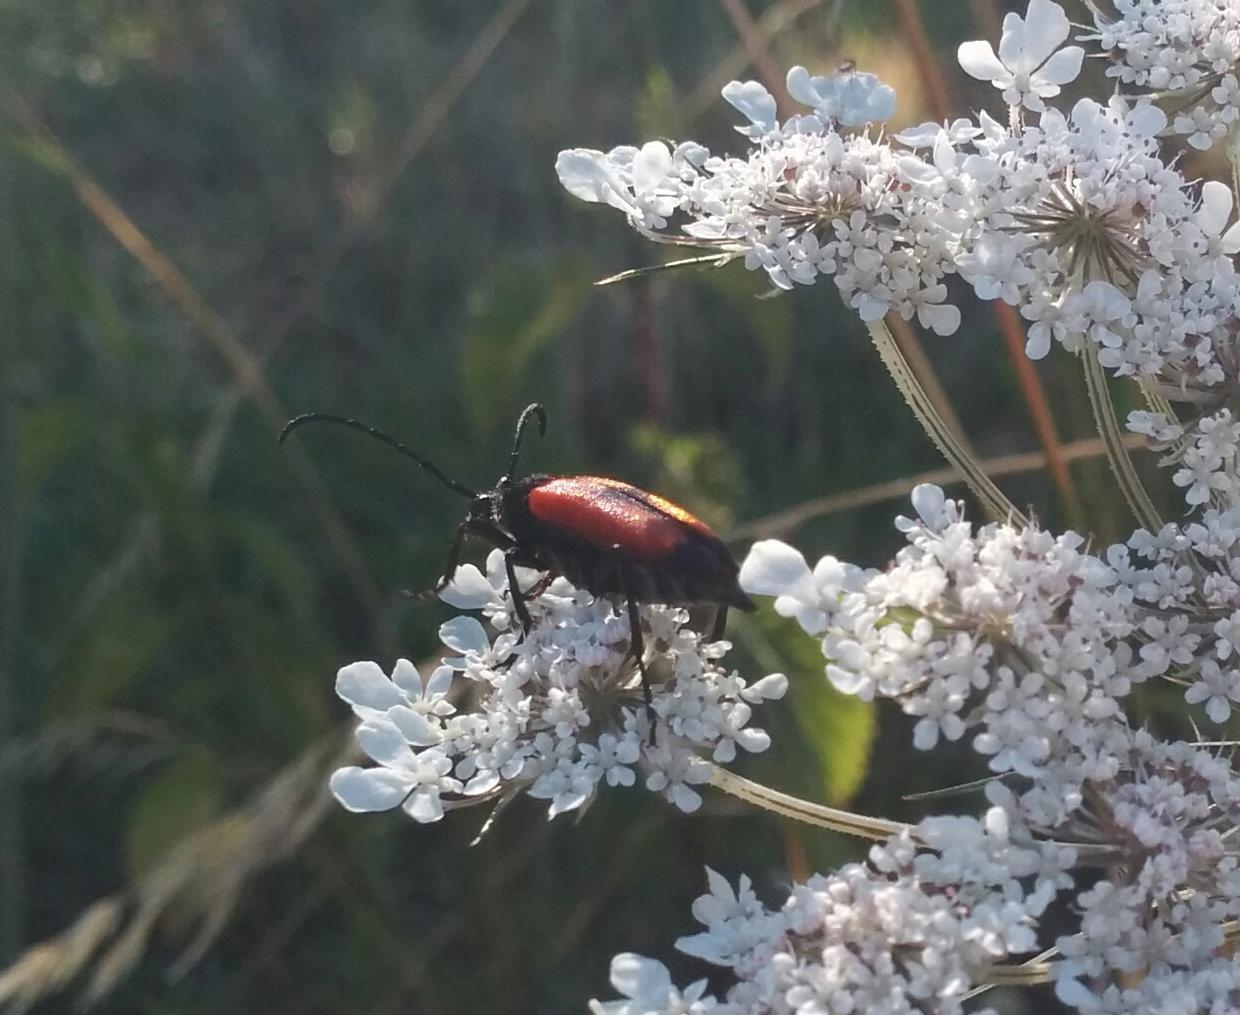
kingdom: Animalia
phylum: Arthropoda
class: Insecta
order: Coleoptera
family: Cerambycidae
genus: Stictoleptura
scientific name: Stictoleptura cordigera
